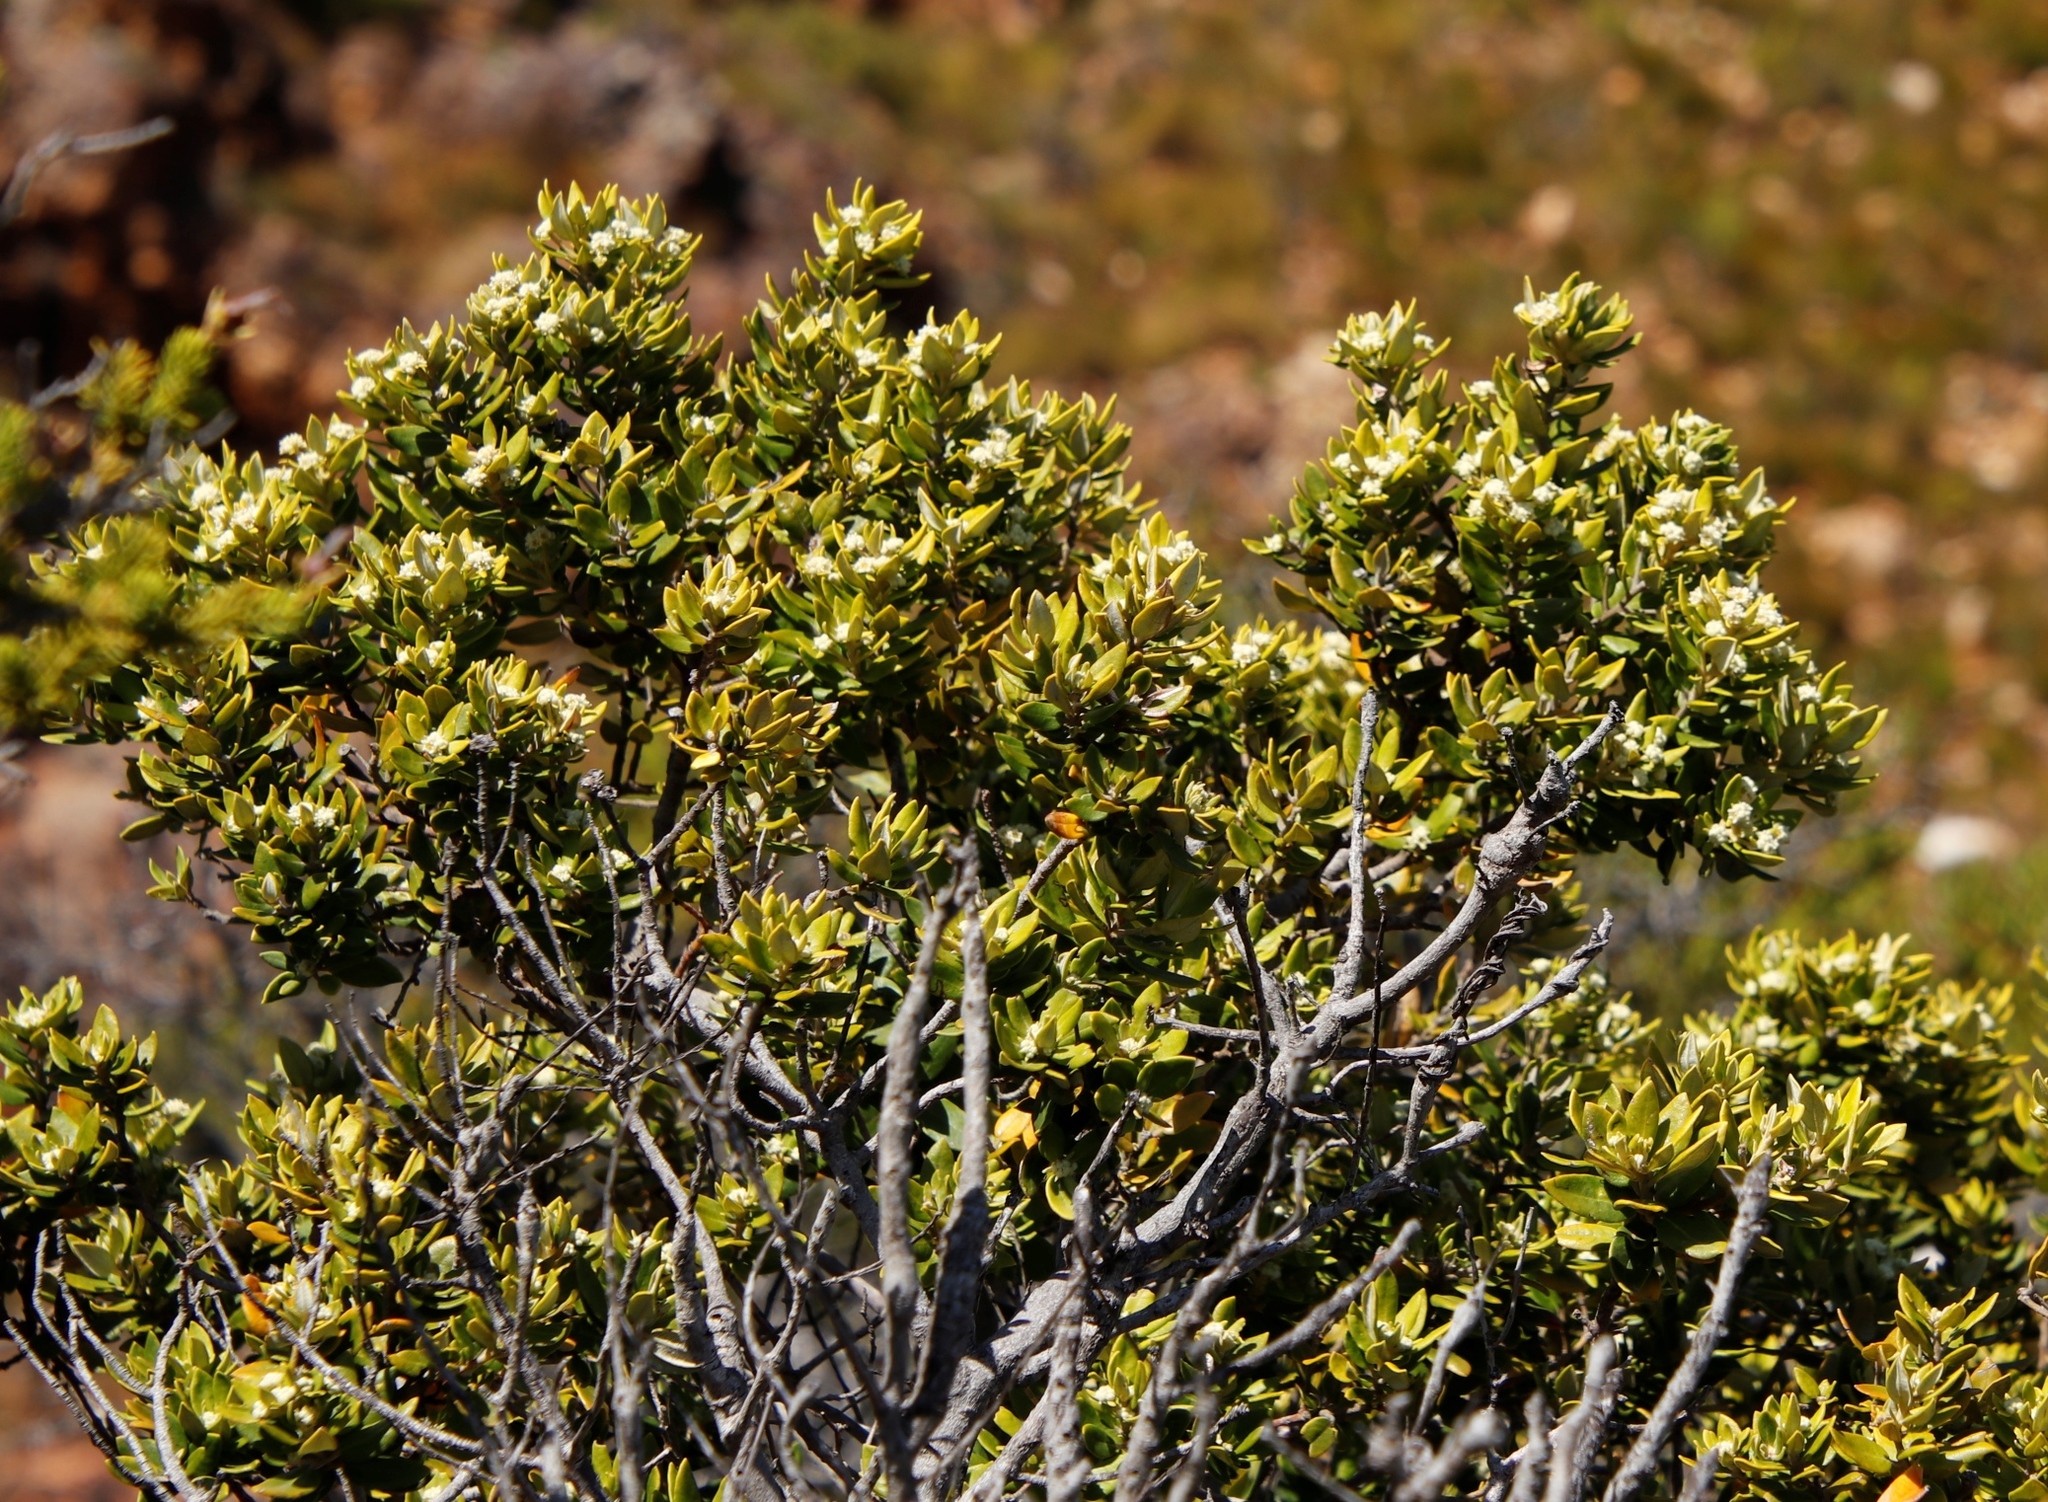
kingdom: Plantae
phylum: Tracheophyta
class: Magnoliopsida
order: Rosales
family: Rhamnaceae
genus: Phylica
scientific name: Phylica buxifolia
